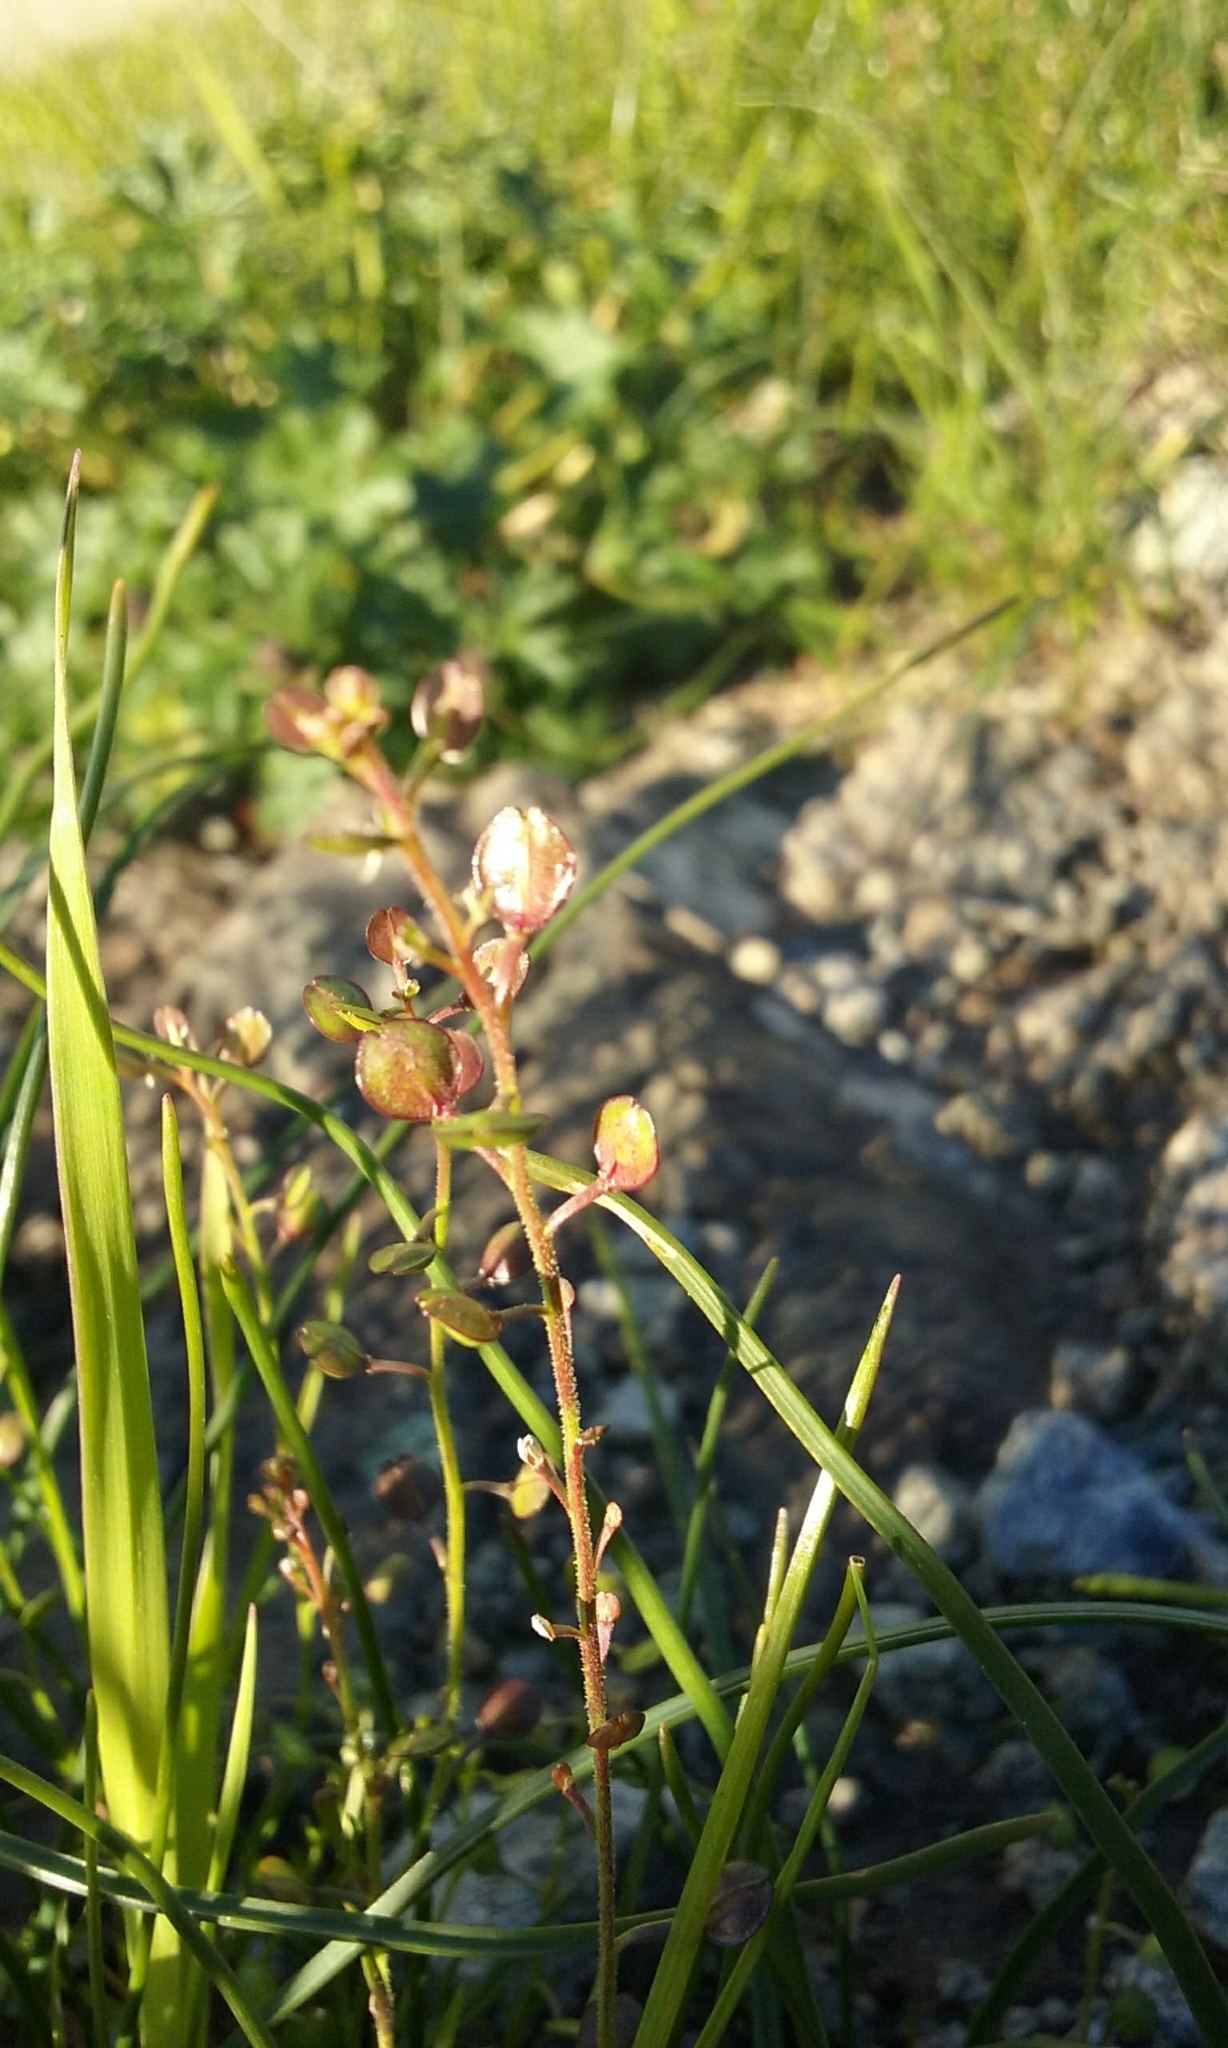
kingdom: Plantae
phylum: Tracheophyta
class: Magnoliopsida
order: Brassicales
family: Brassicaceae
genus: Lepidium
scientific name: Lepidium nitidum
